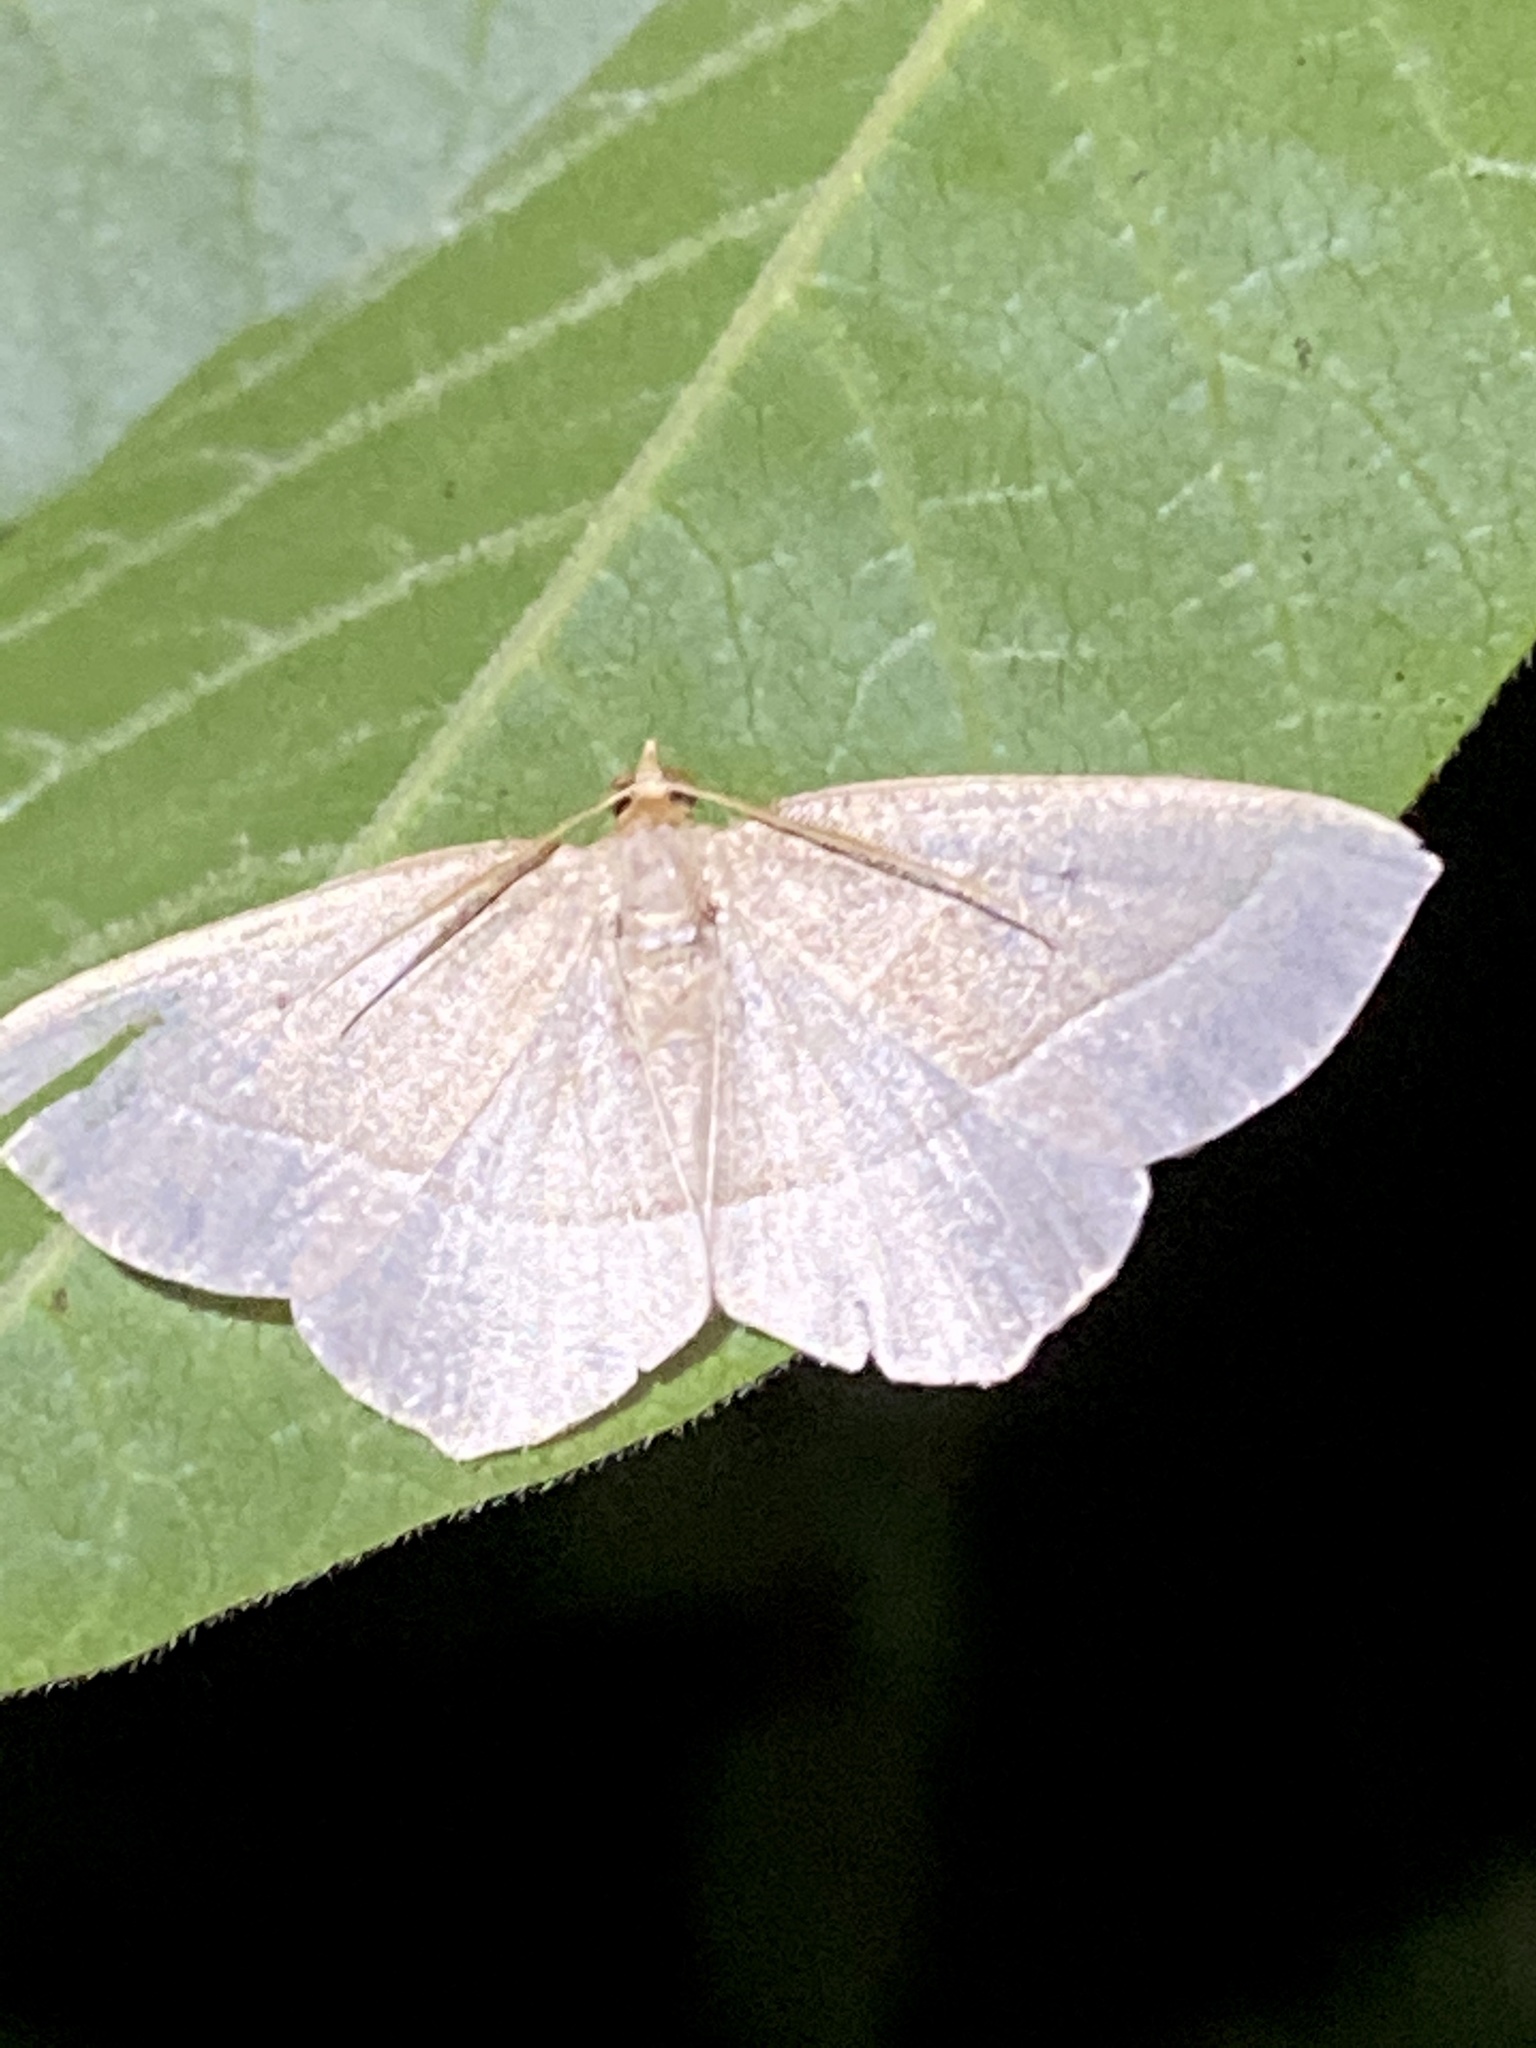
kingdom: Animalia
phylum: Arthropoda
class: Insecta
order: Lepidoptera
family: Geometridae
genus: Rhynchobapta
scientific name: Rhynchobapta cervinaria
